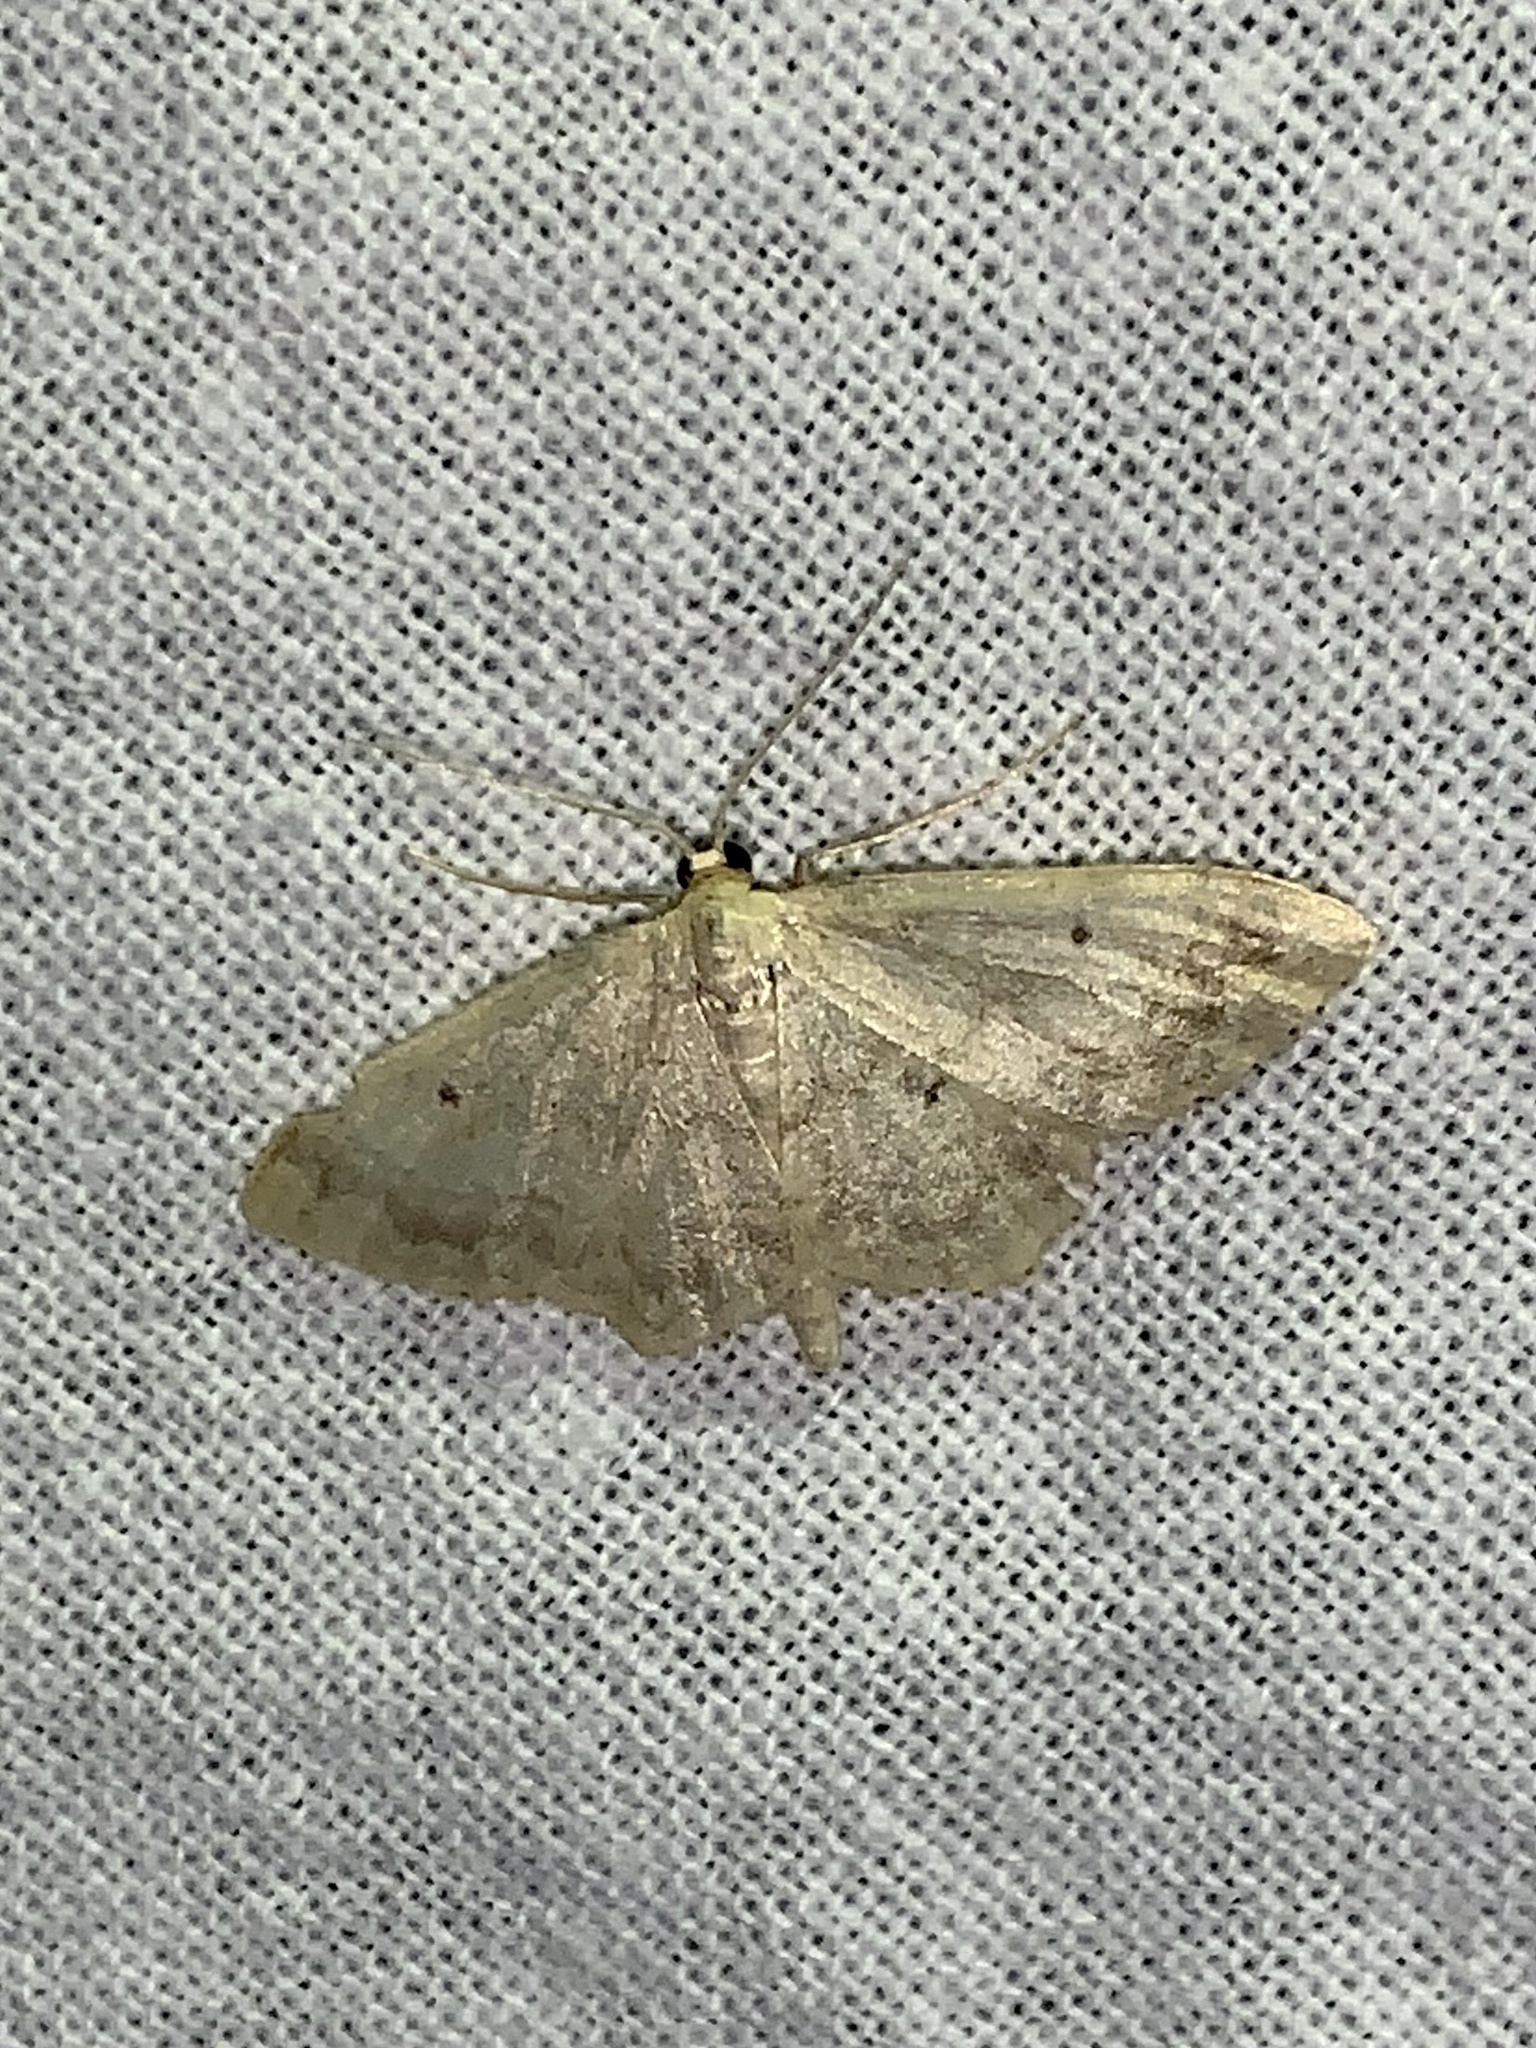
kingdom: Animalia
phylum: Arthropoda
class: Insecta
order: Lepidoptera
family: Geometridae
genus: Idaea
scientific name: Idaea biselata
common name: Small fan-footed wave
